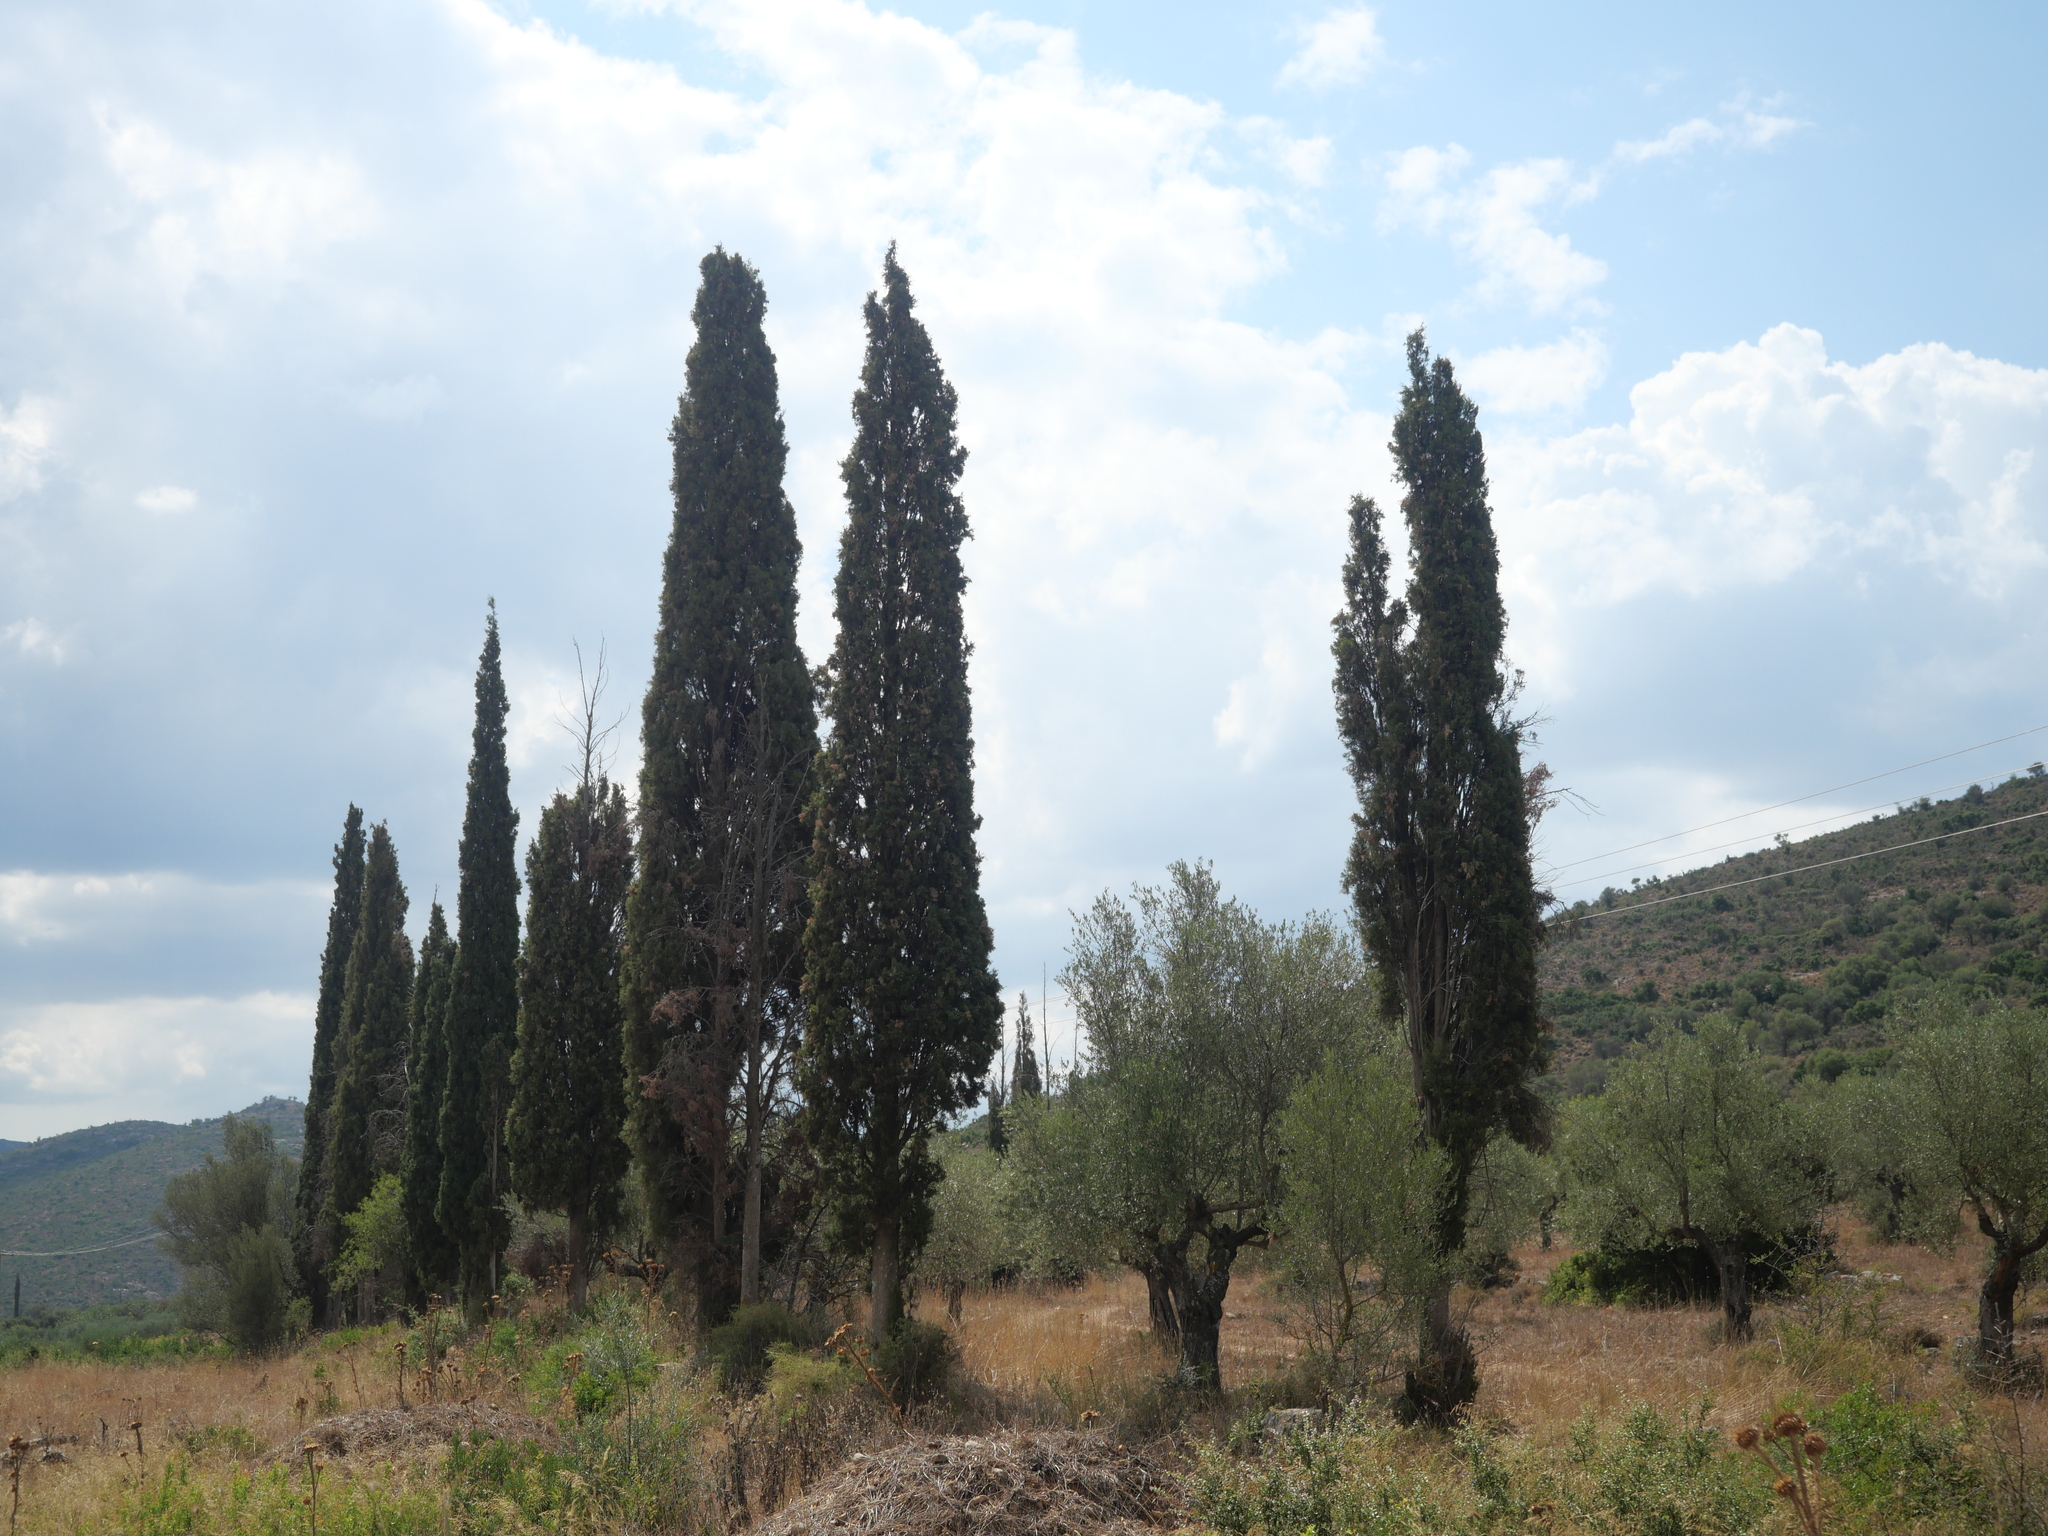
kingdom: Plantae
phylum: Tracheophyta
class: Pinopsida
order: Pinales
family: Cupressaceae
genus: Cupressus
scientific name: Cupressus sempervirens
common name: Italian cypress
